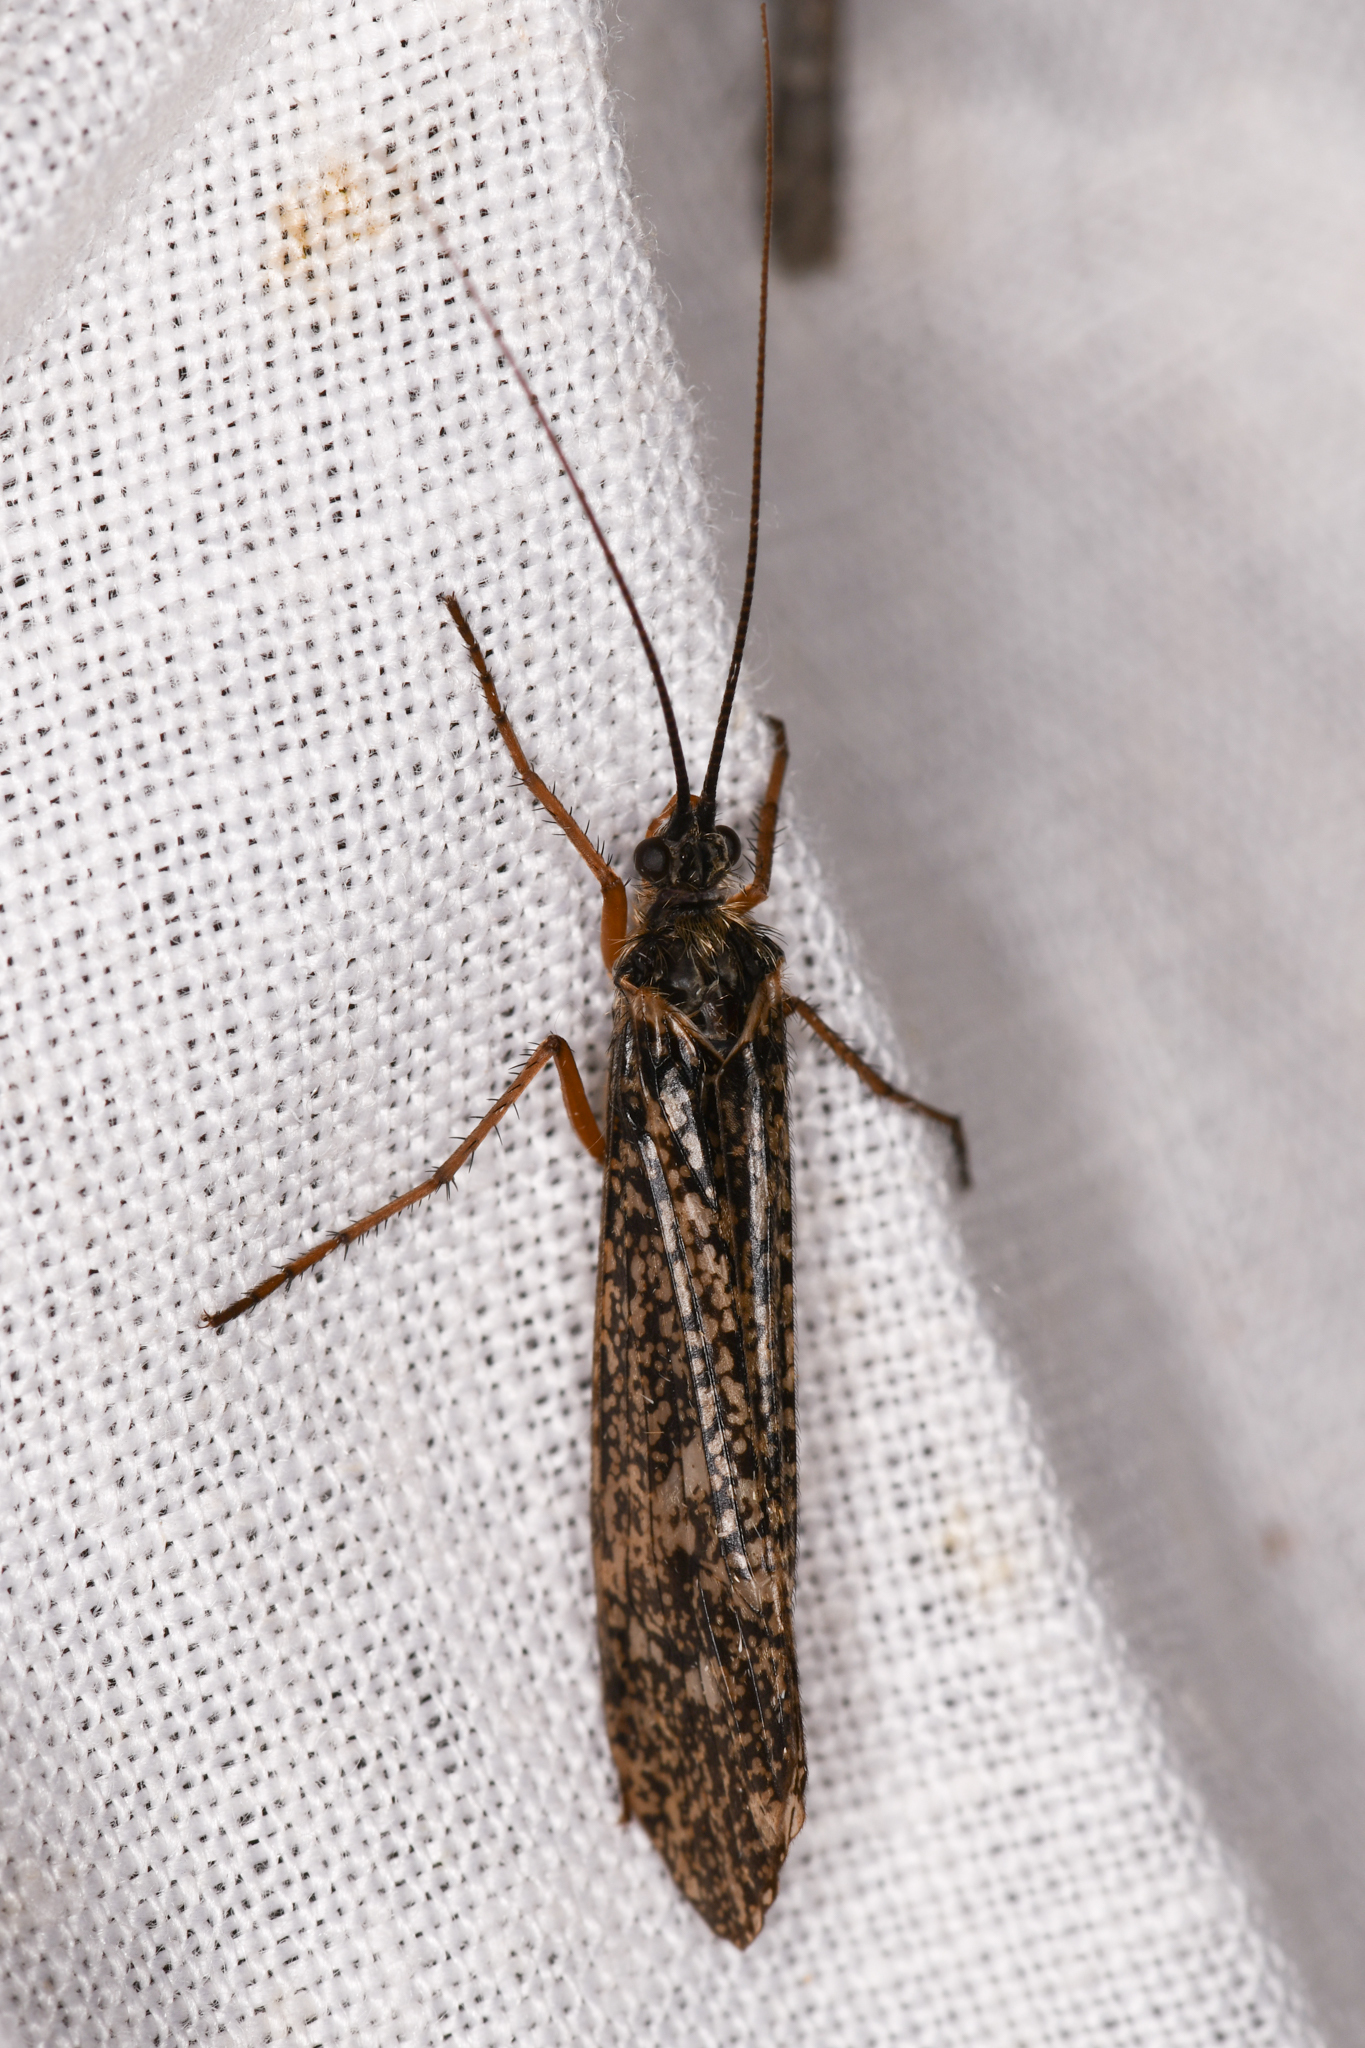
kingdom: Animalia
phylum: Arthropoda
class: Insecta
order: Trichoptera
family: Limnephilidae
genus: Clistoronia
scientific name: Clistoronia magnifica
